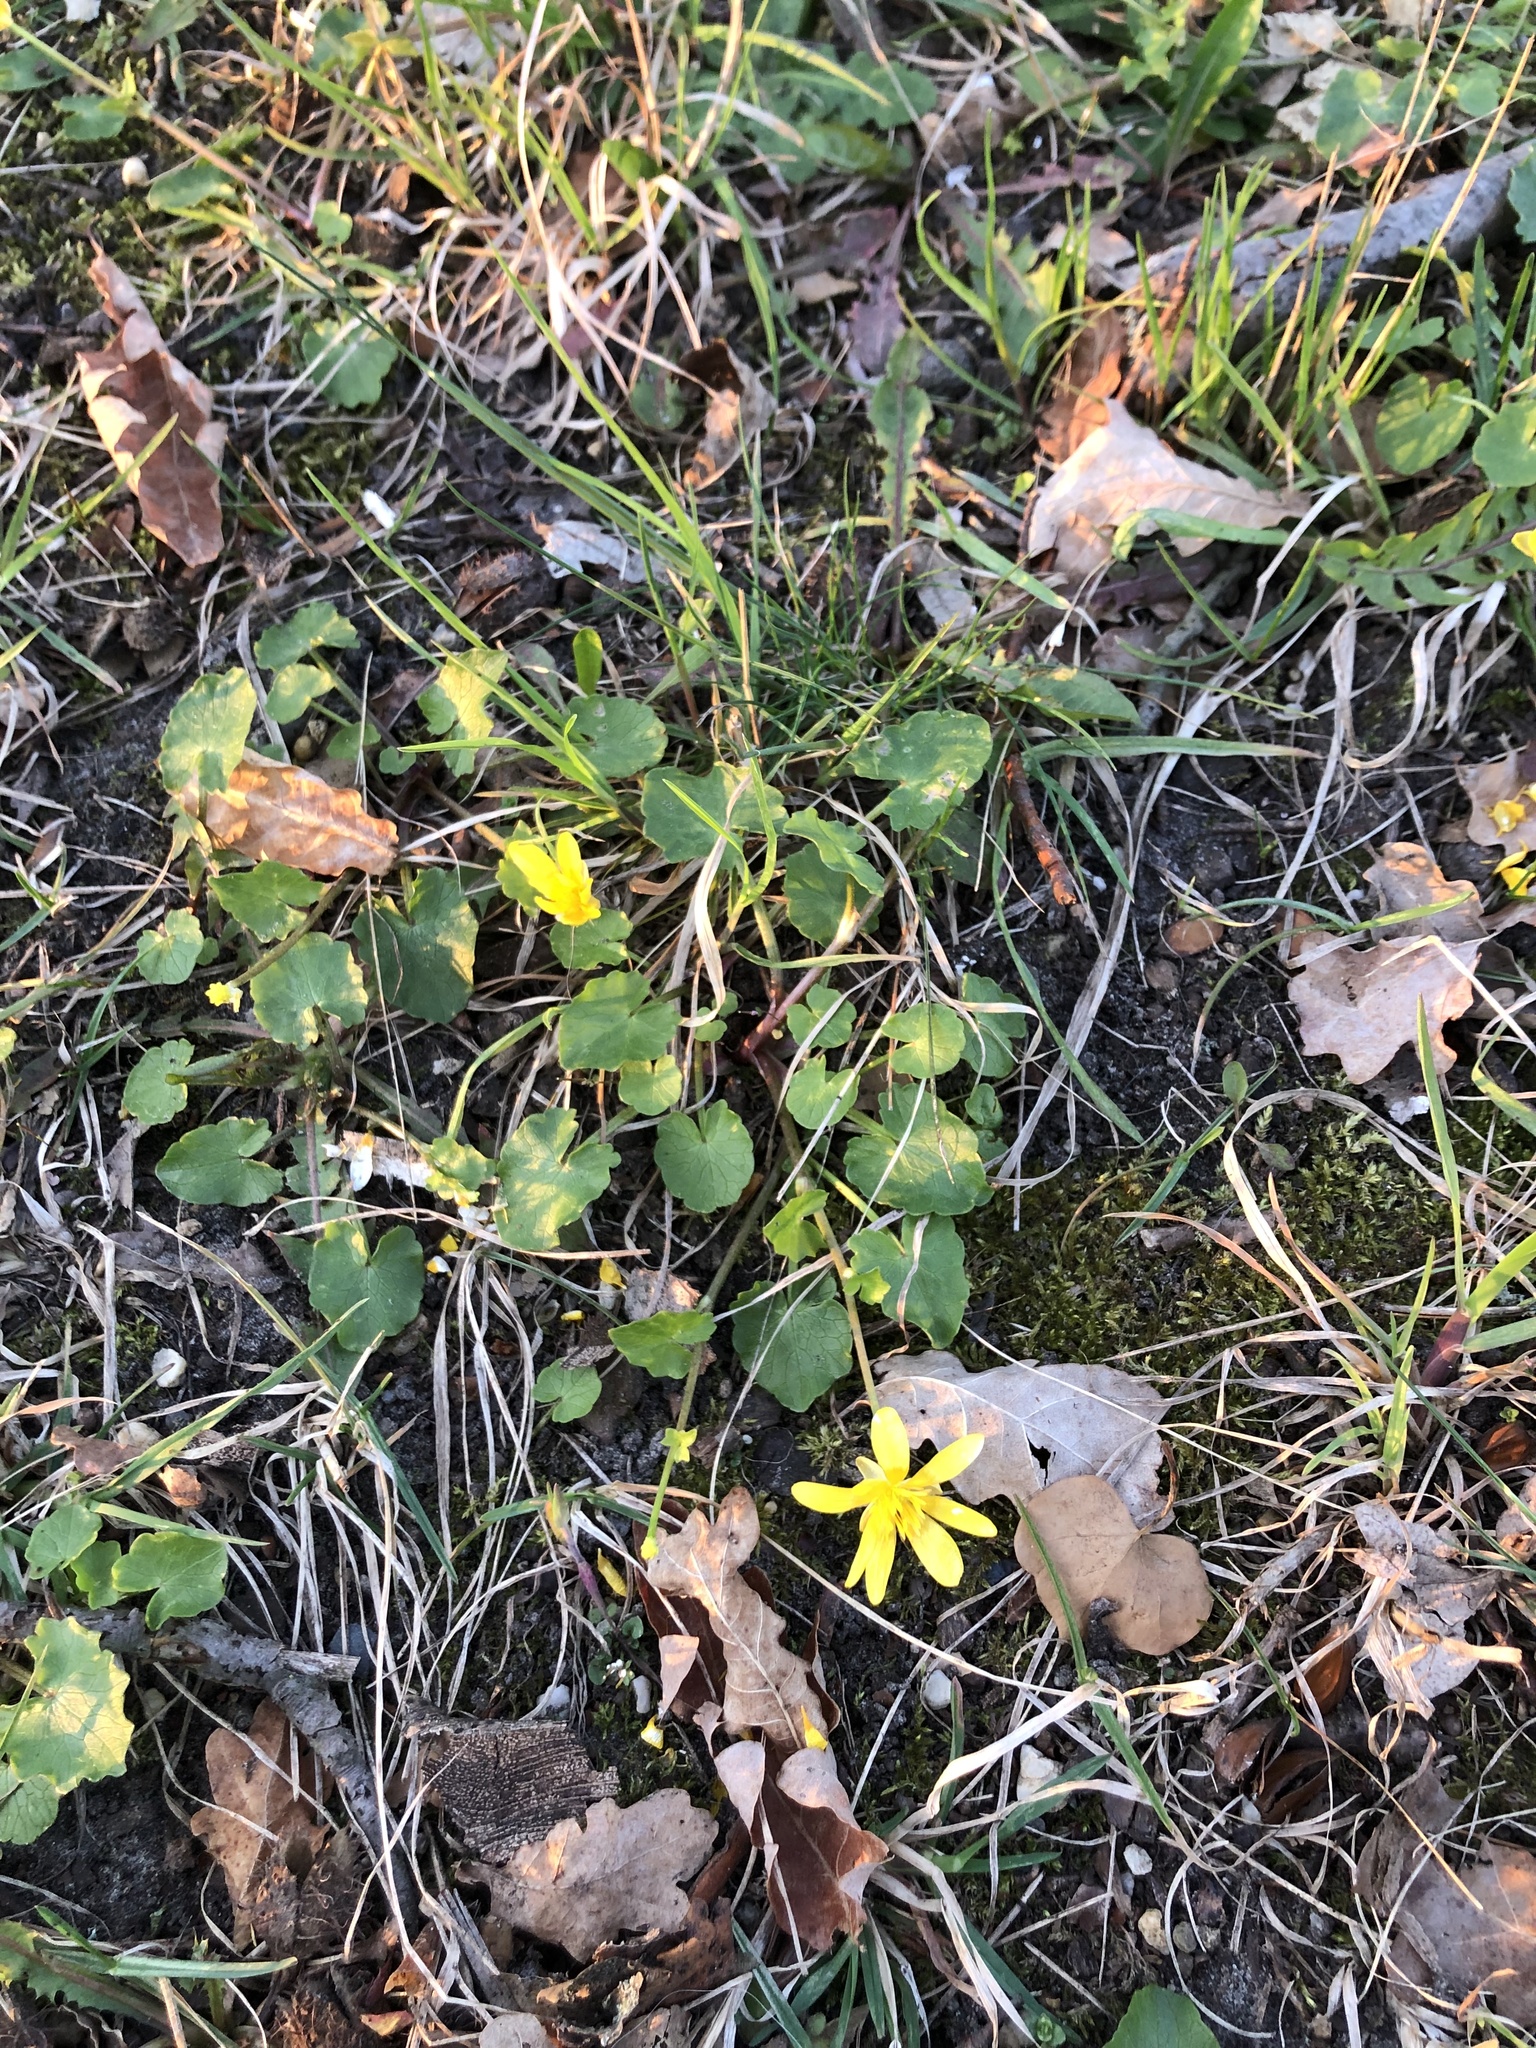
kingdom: Plantae
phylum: Tracheophyta
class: Magnoliopsida
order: Ranunculales
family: Ranunculaceae
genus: Ficaria
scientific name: Ficaria verna
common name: Lesser celandine
